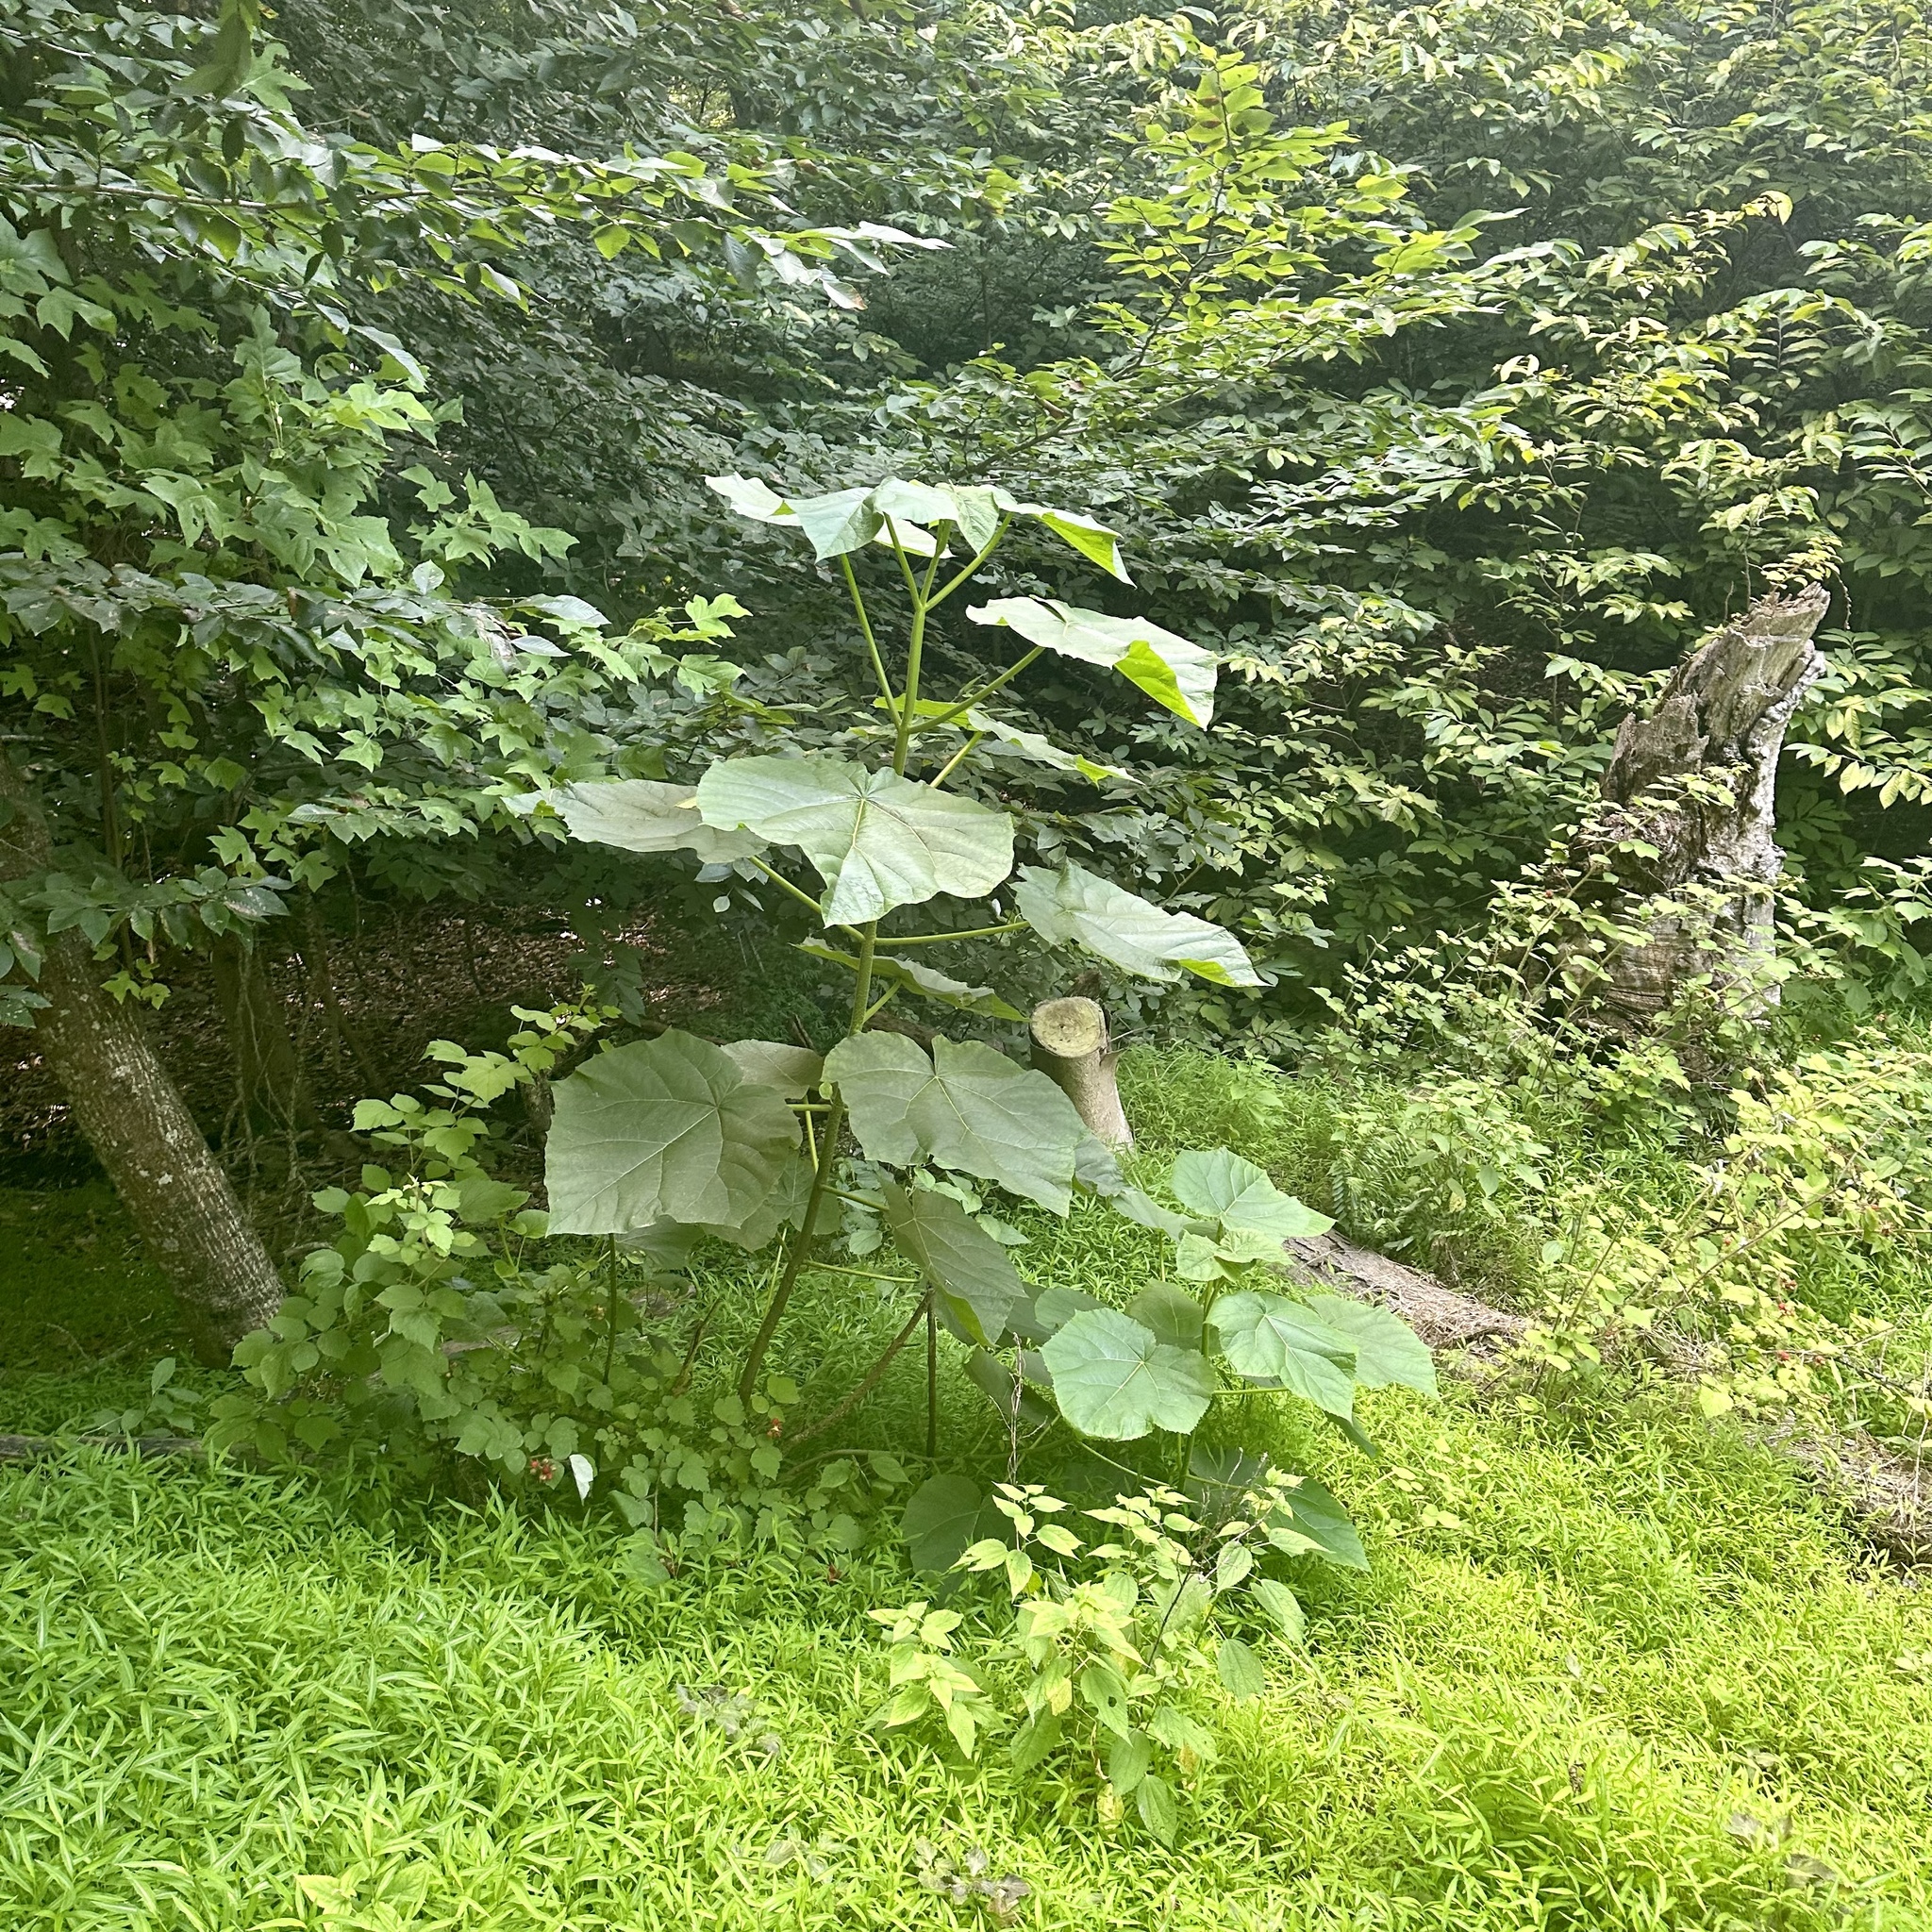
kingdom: Plantae
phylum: Tracheophyta
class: Magnoliopsida
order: Lamiales
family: Paulowniaceae
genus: Paulownia
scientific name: Paulownia tomentosa
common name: Foxglove-tree
